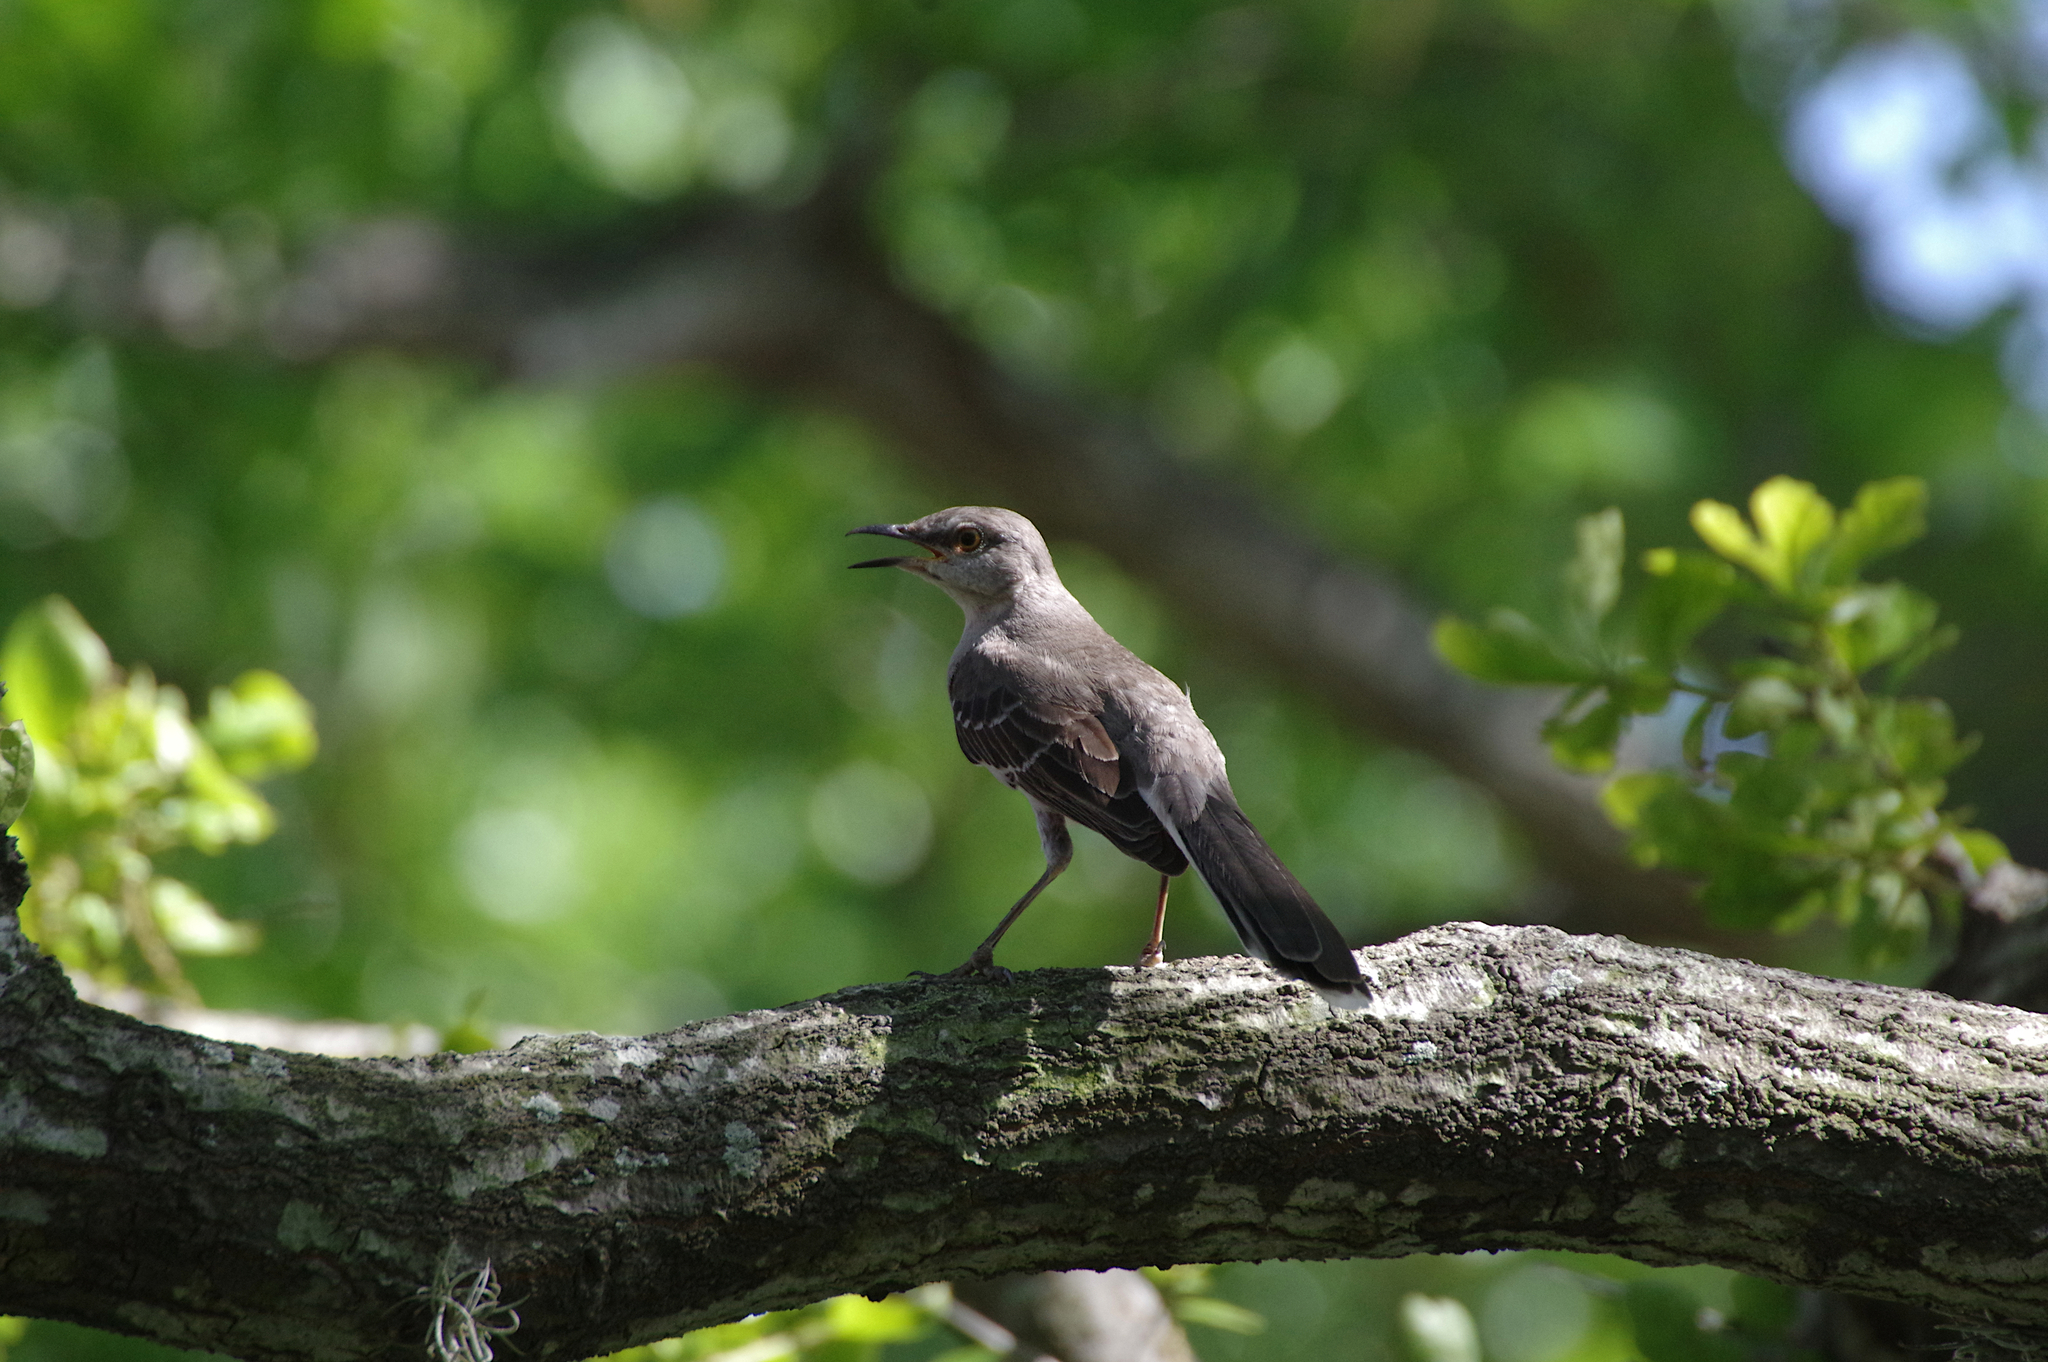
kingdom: Animalia
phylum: Chordata
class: Aves
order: Passeriformes
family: Mimidae
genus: Mimus
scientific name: Mimus polyglottos
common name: Northern mockingbird
